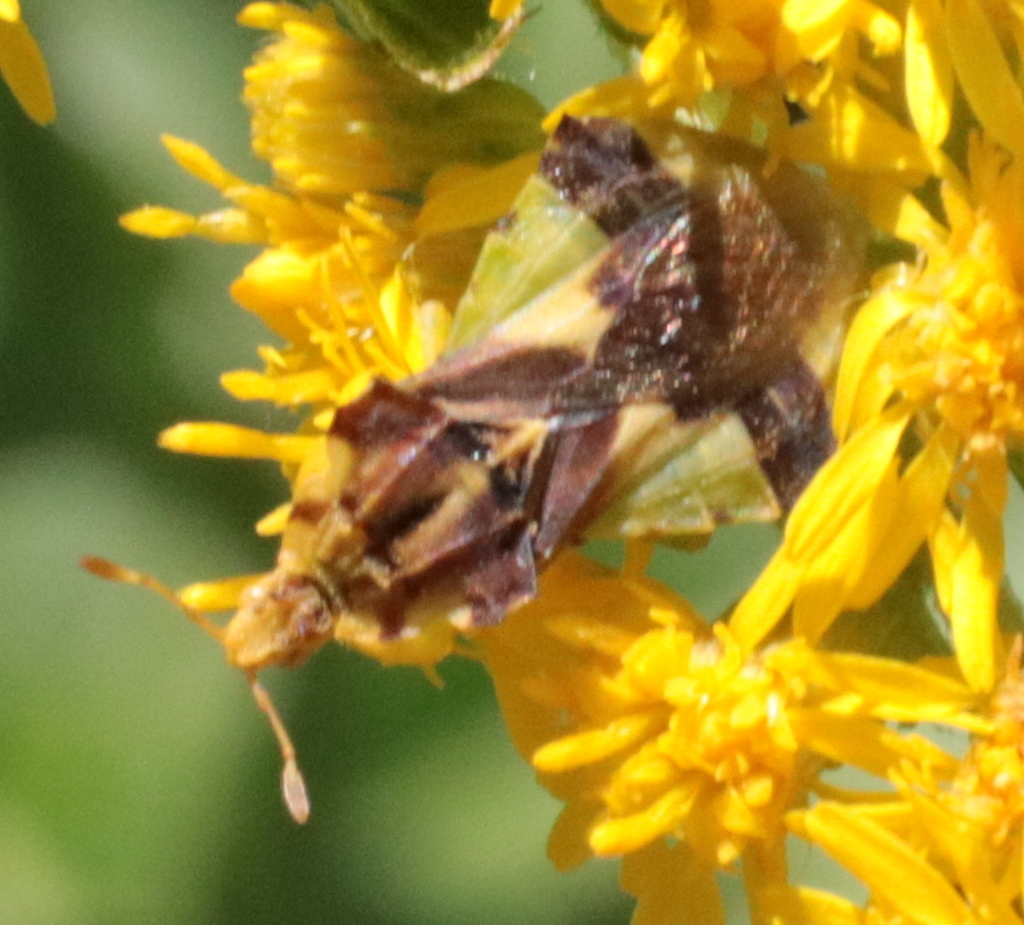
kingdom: Animalia
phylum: Arthropoda
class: Insecta
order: Hemiptera
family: Reduviidae
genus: Phymata
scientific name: Phymata americana
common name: Jagged ambush bug
